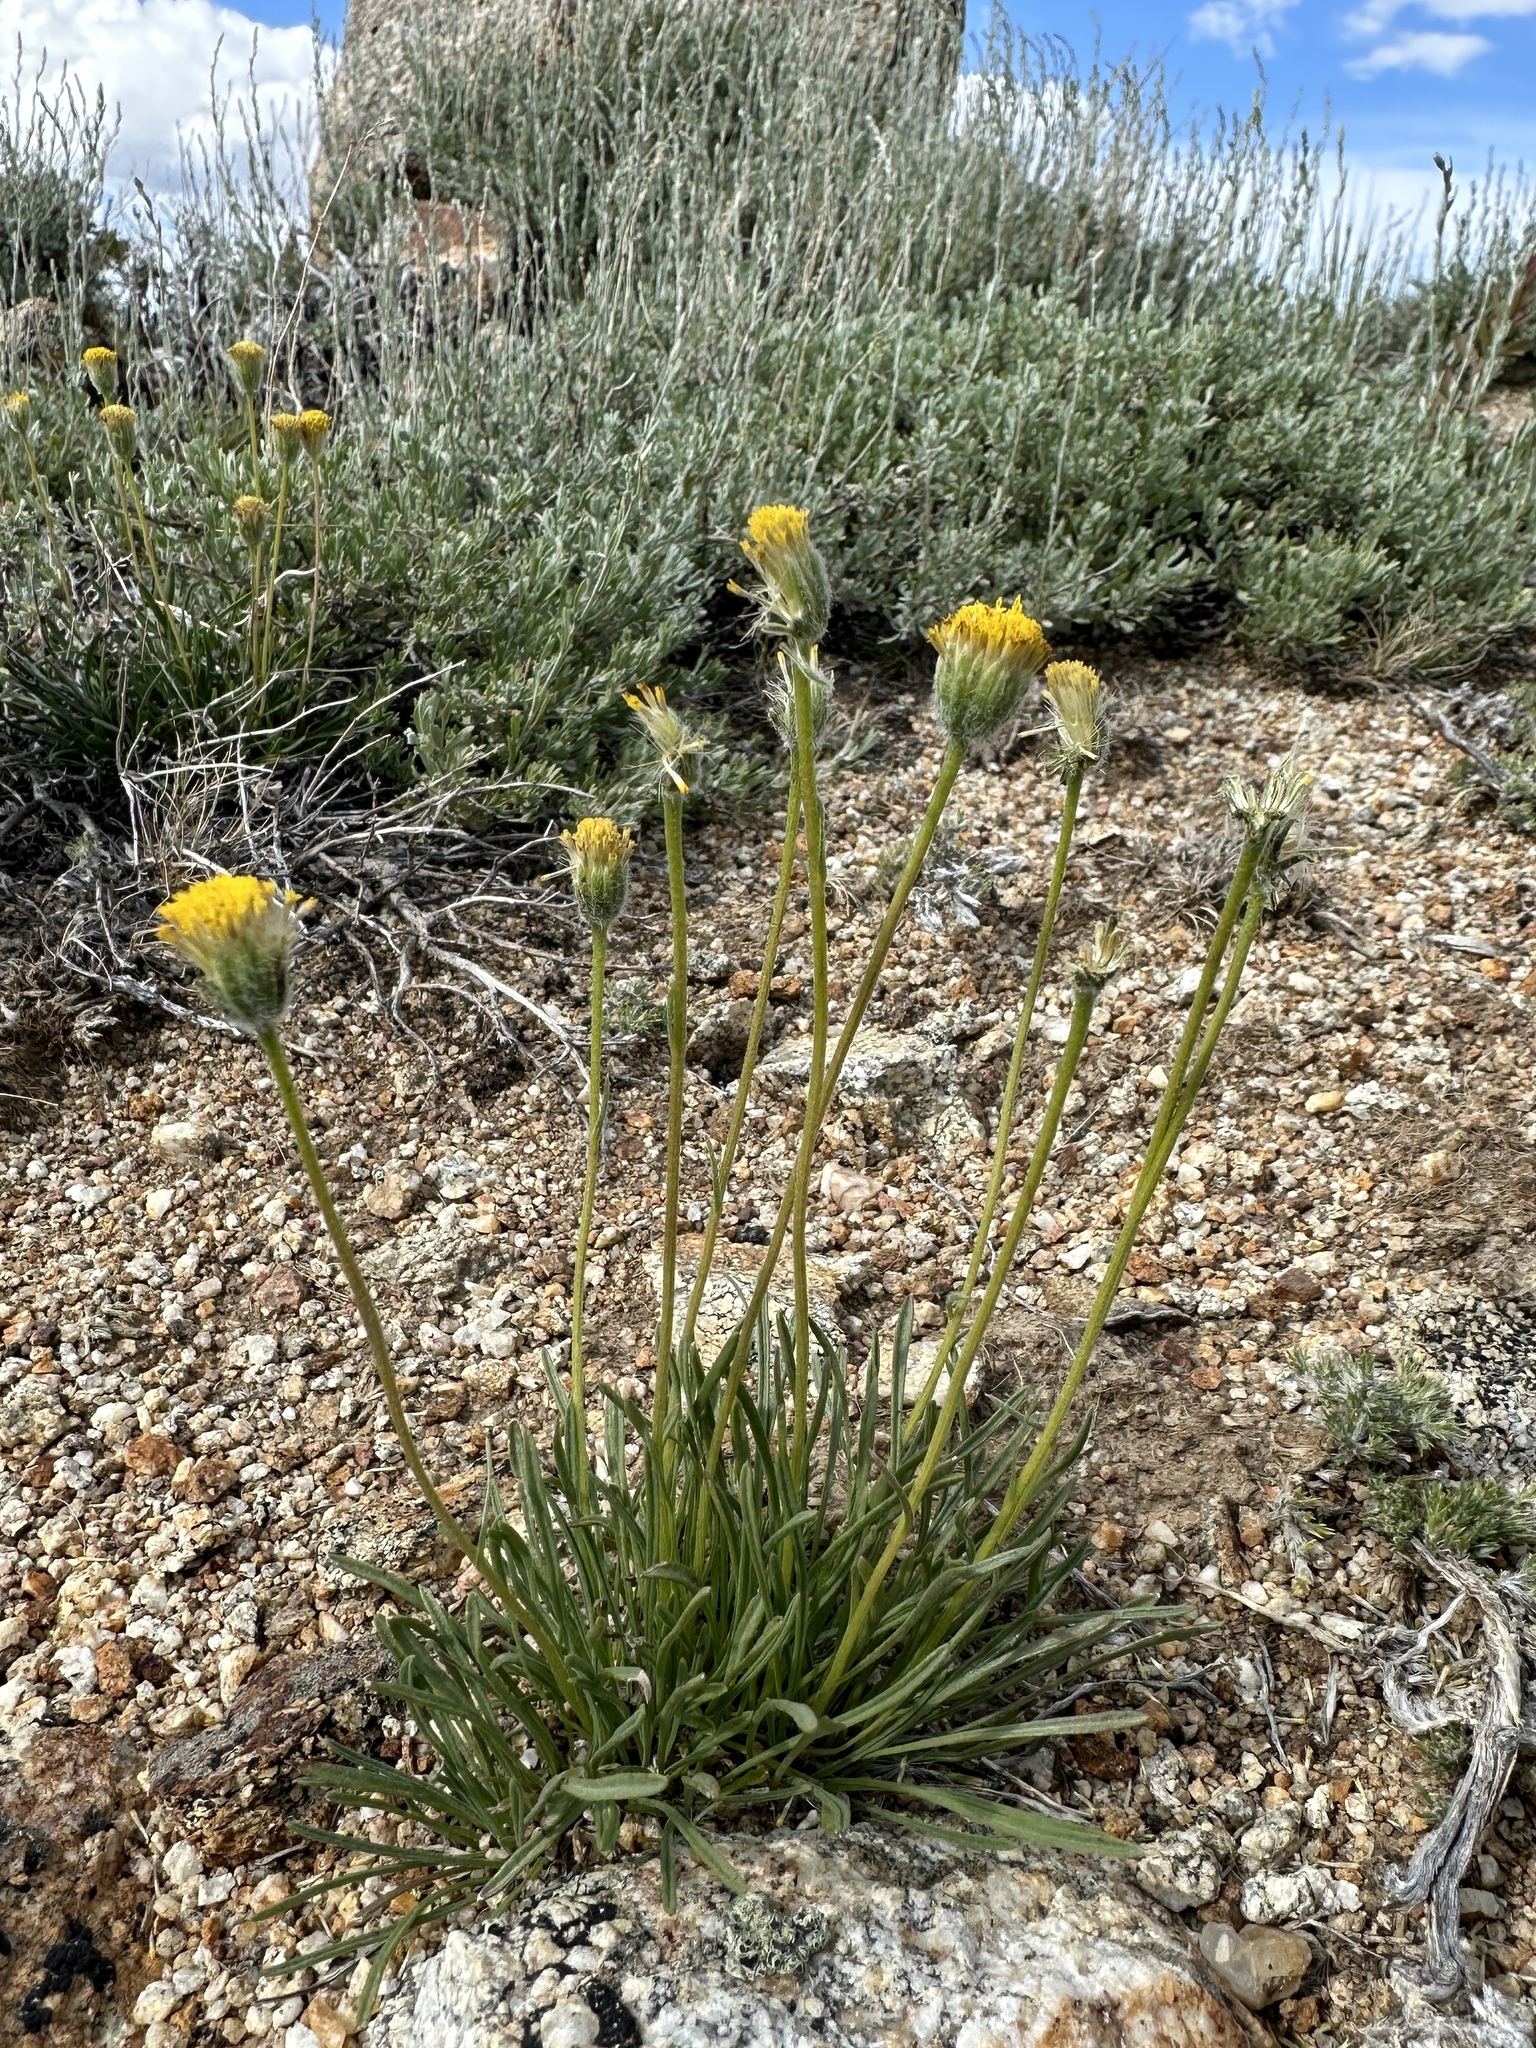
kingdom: Plantae
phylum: Tracheophyta
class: Magnoliopsida
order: Asterales
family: Asteraceae
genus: Erigeron
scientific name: Erigeron bloomeri
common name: Bloomer's fleabane
